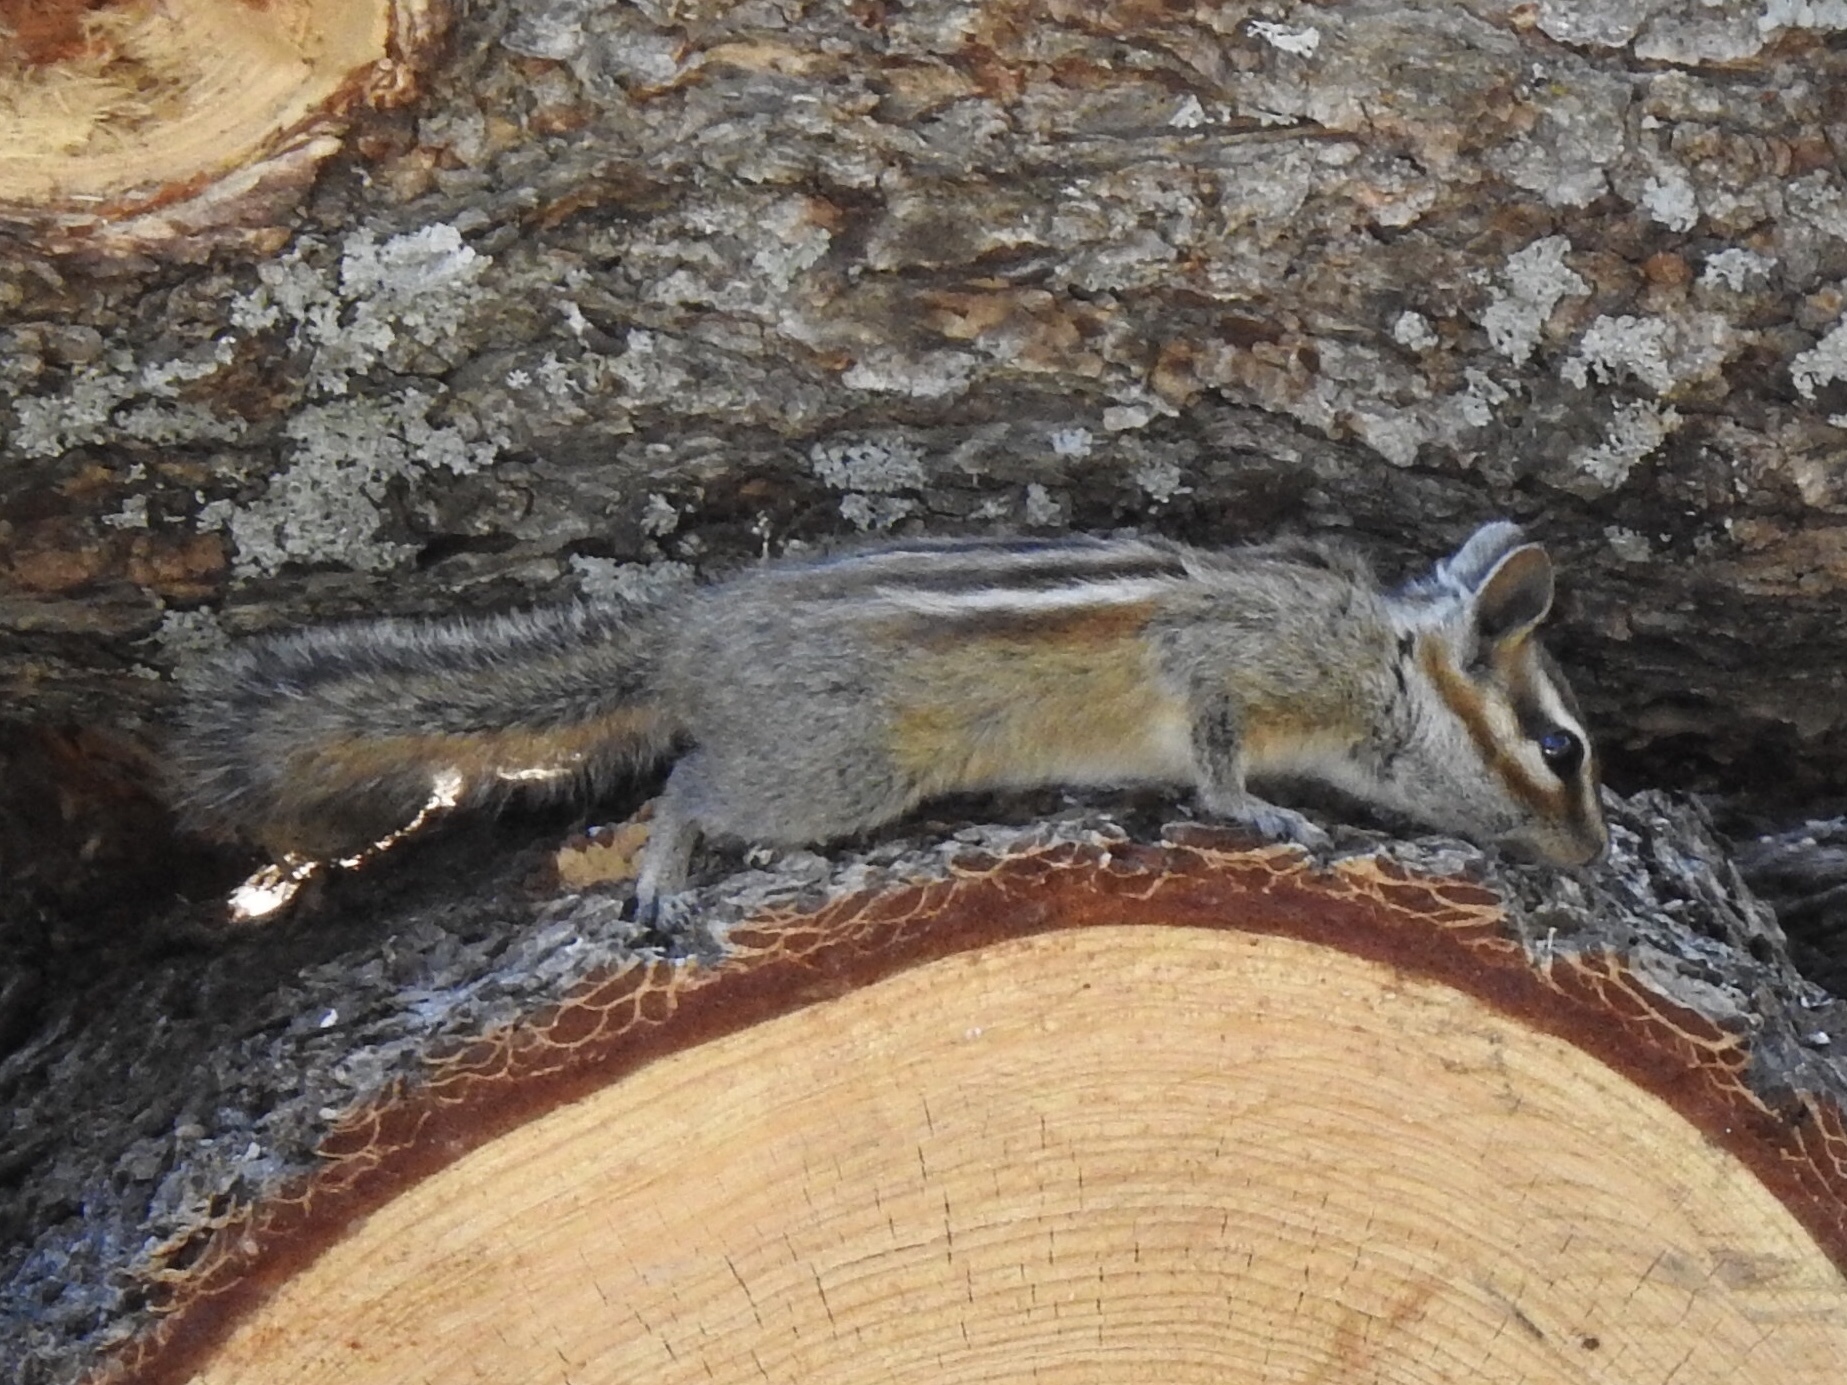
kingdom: Animalia
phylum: Chordata
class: Mammalia
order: Rodentia
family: Sciuridae
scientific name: Sciuridae
